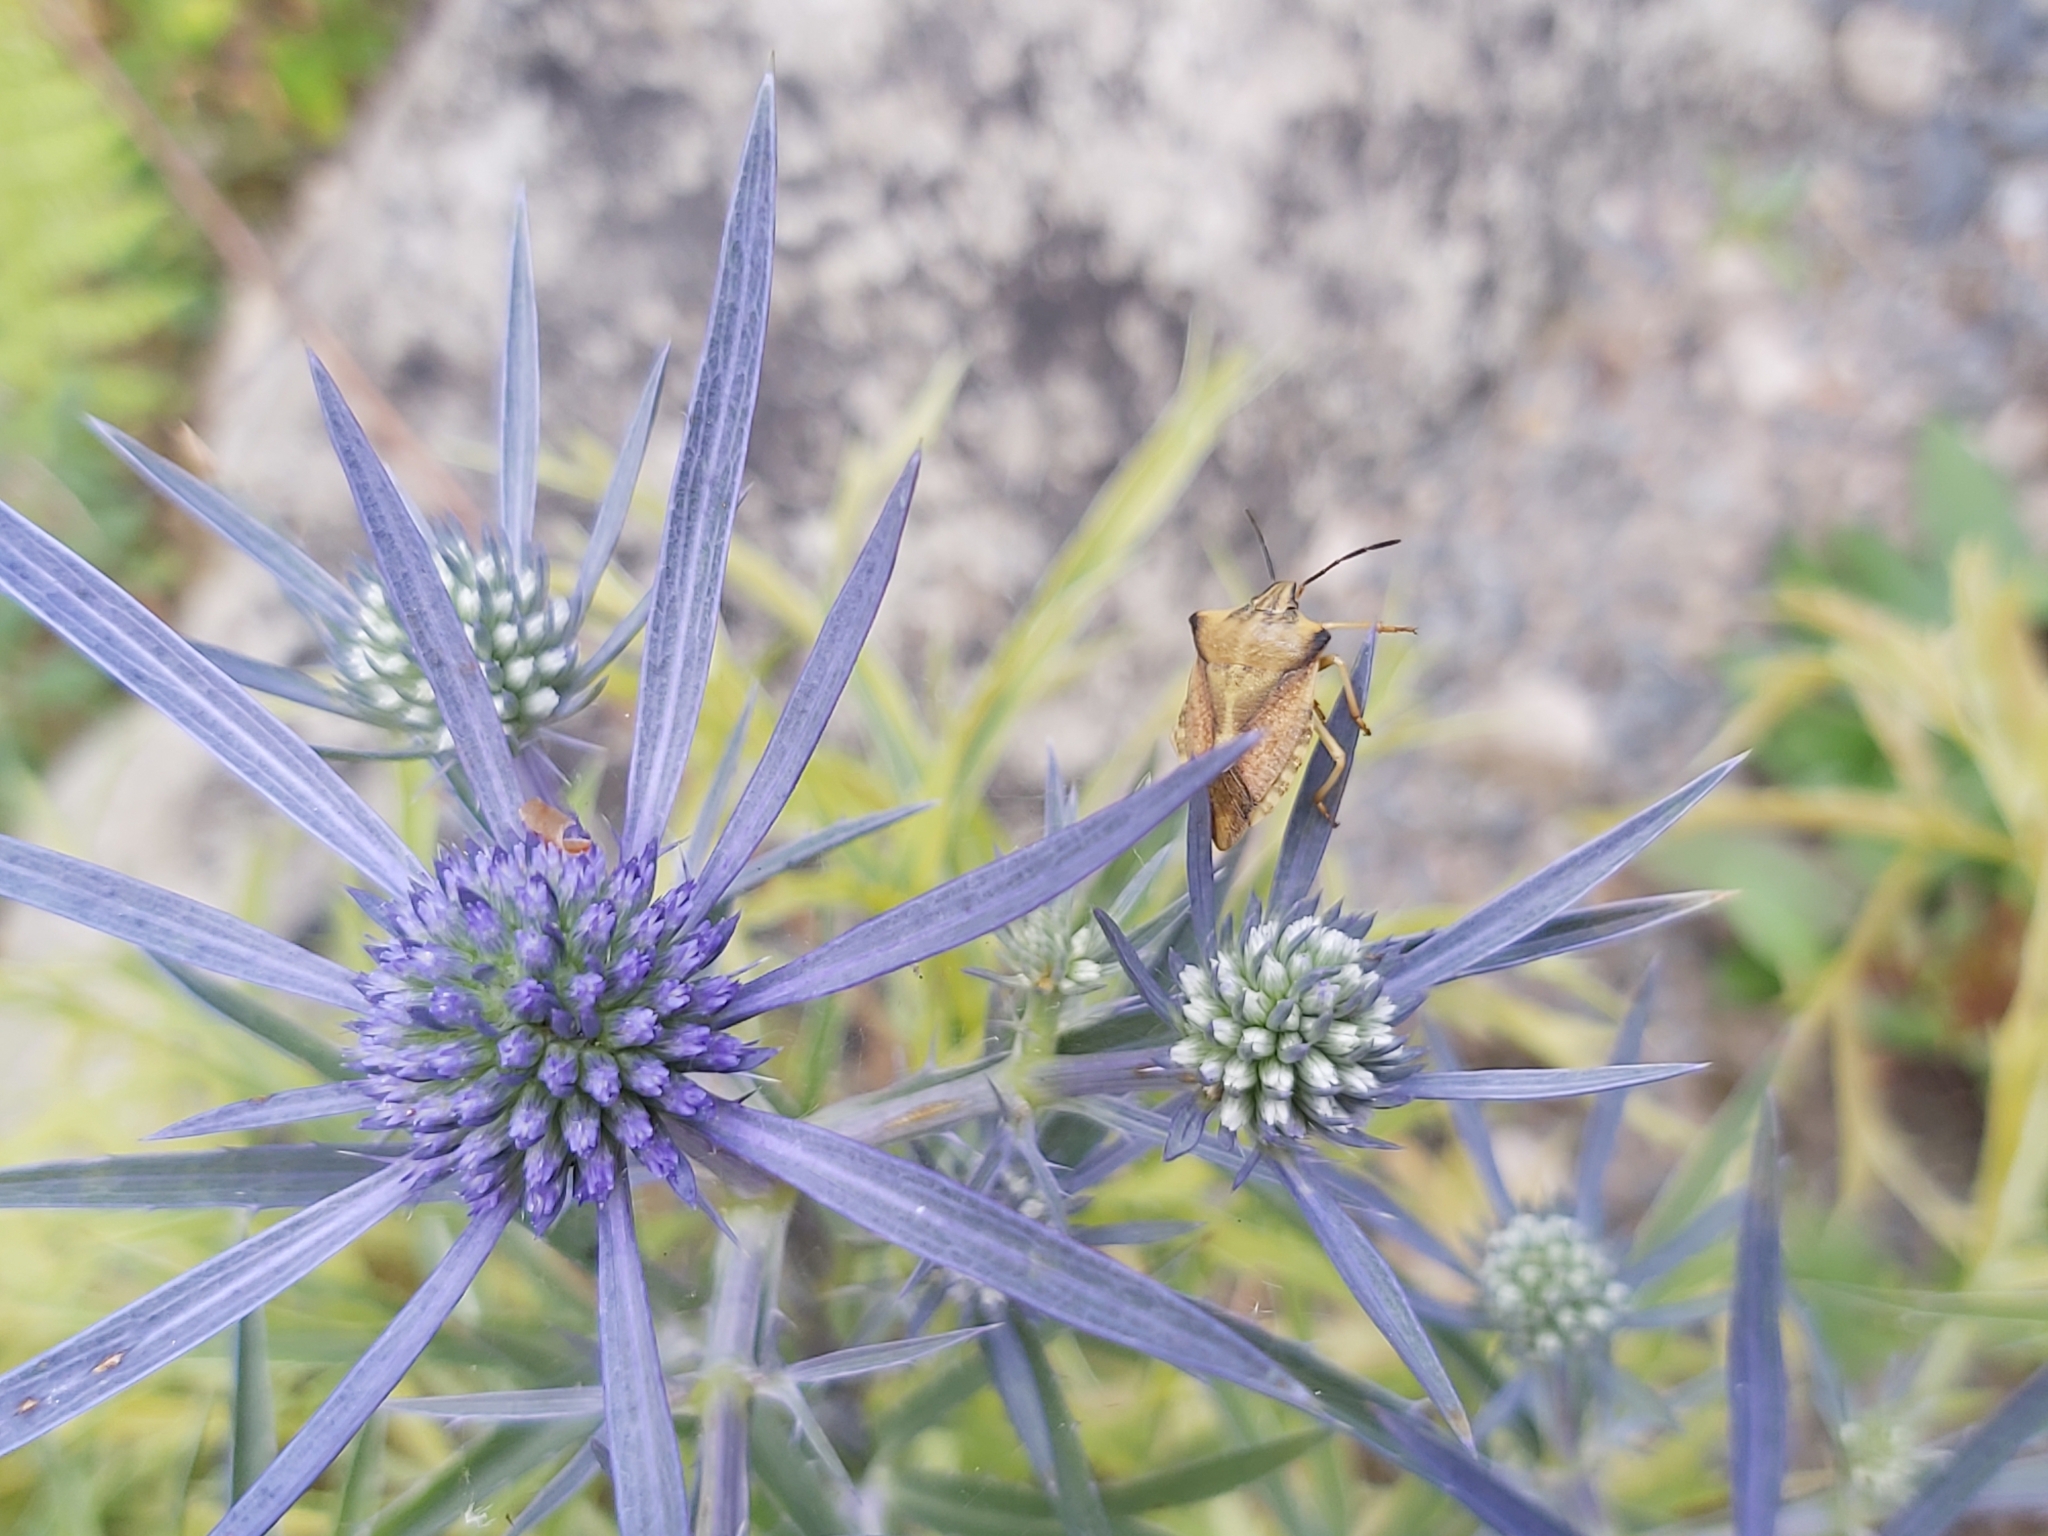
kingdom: Animalia
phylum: Arthropoda
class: Insecta
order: Hemiptera
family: Pentatomidae
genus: Carpocoris
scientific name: Carpocoris fuscispinus
